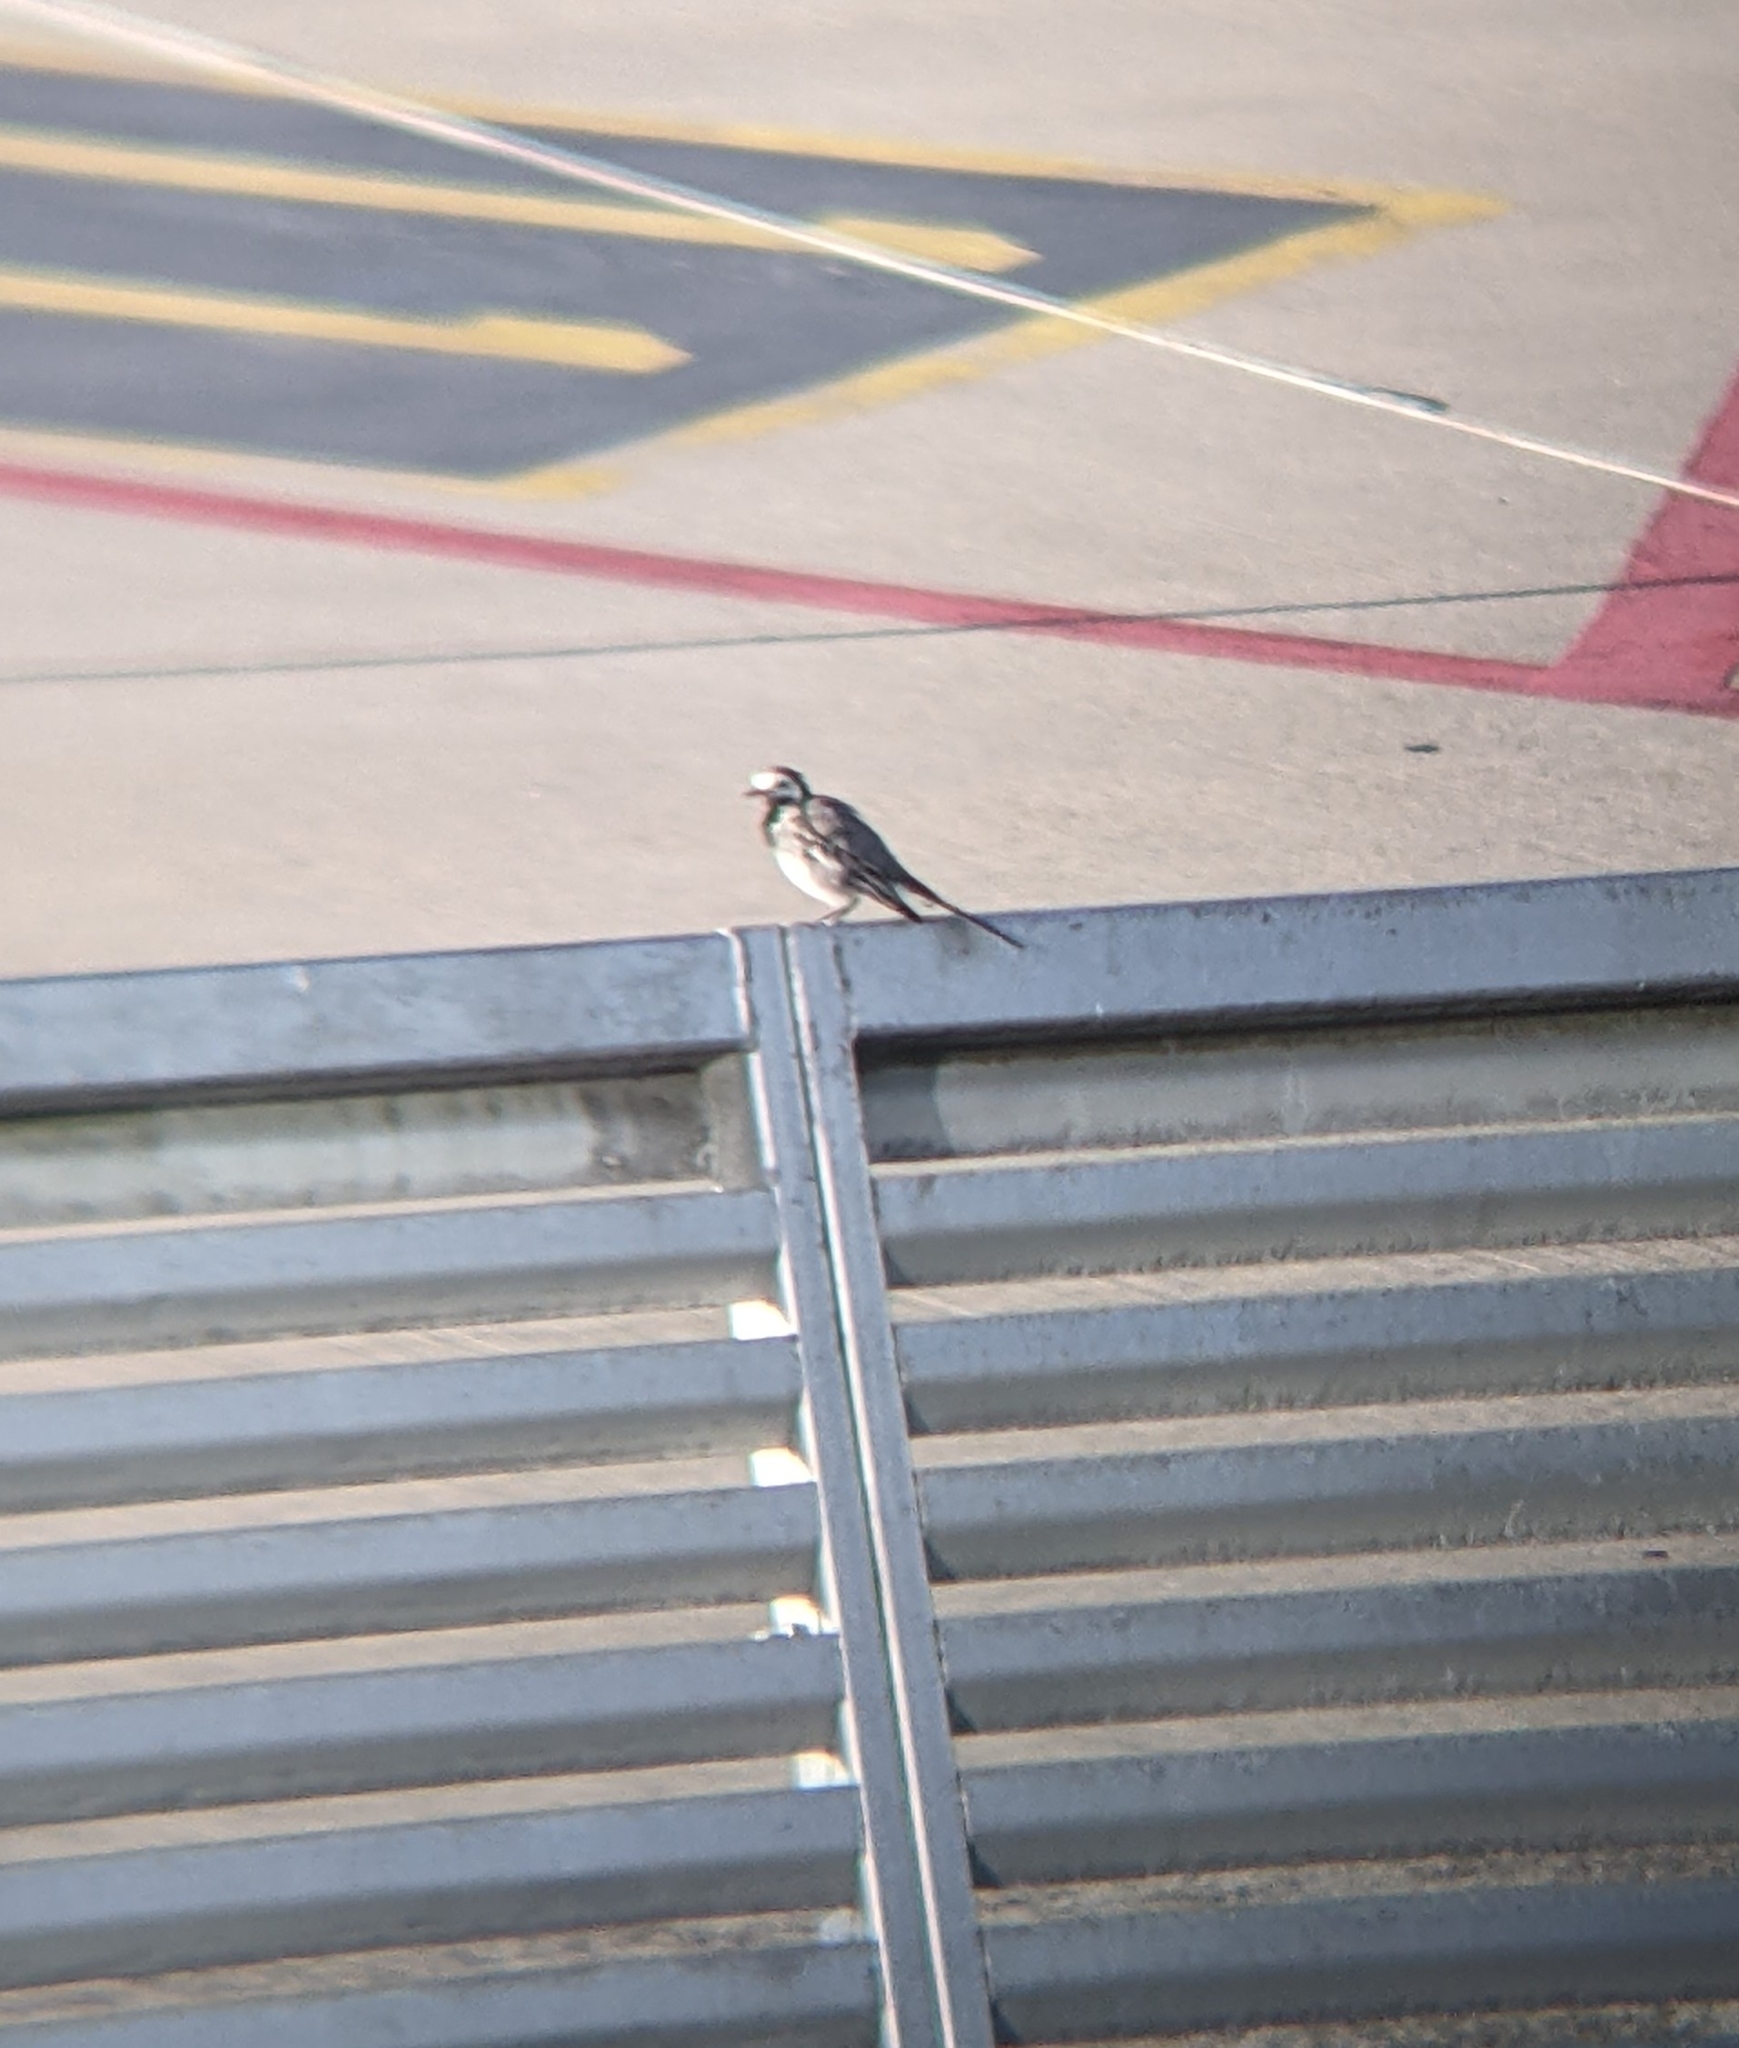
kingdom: Animalia
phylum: Chordata
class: Aves
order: Passeriformes
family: Motacillidae
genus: Motacilla
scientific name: Motacilla alba
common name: White wagtail
